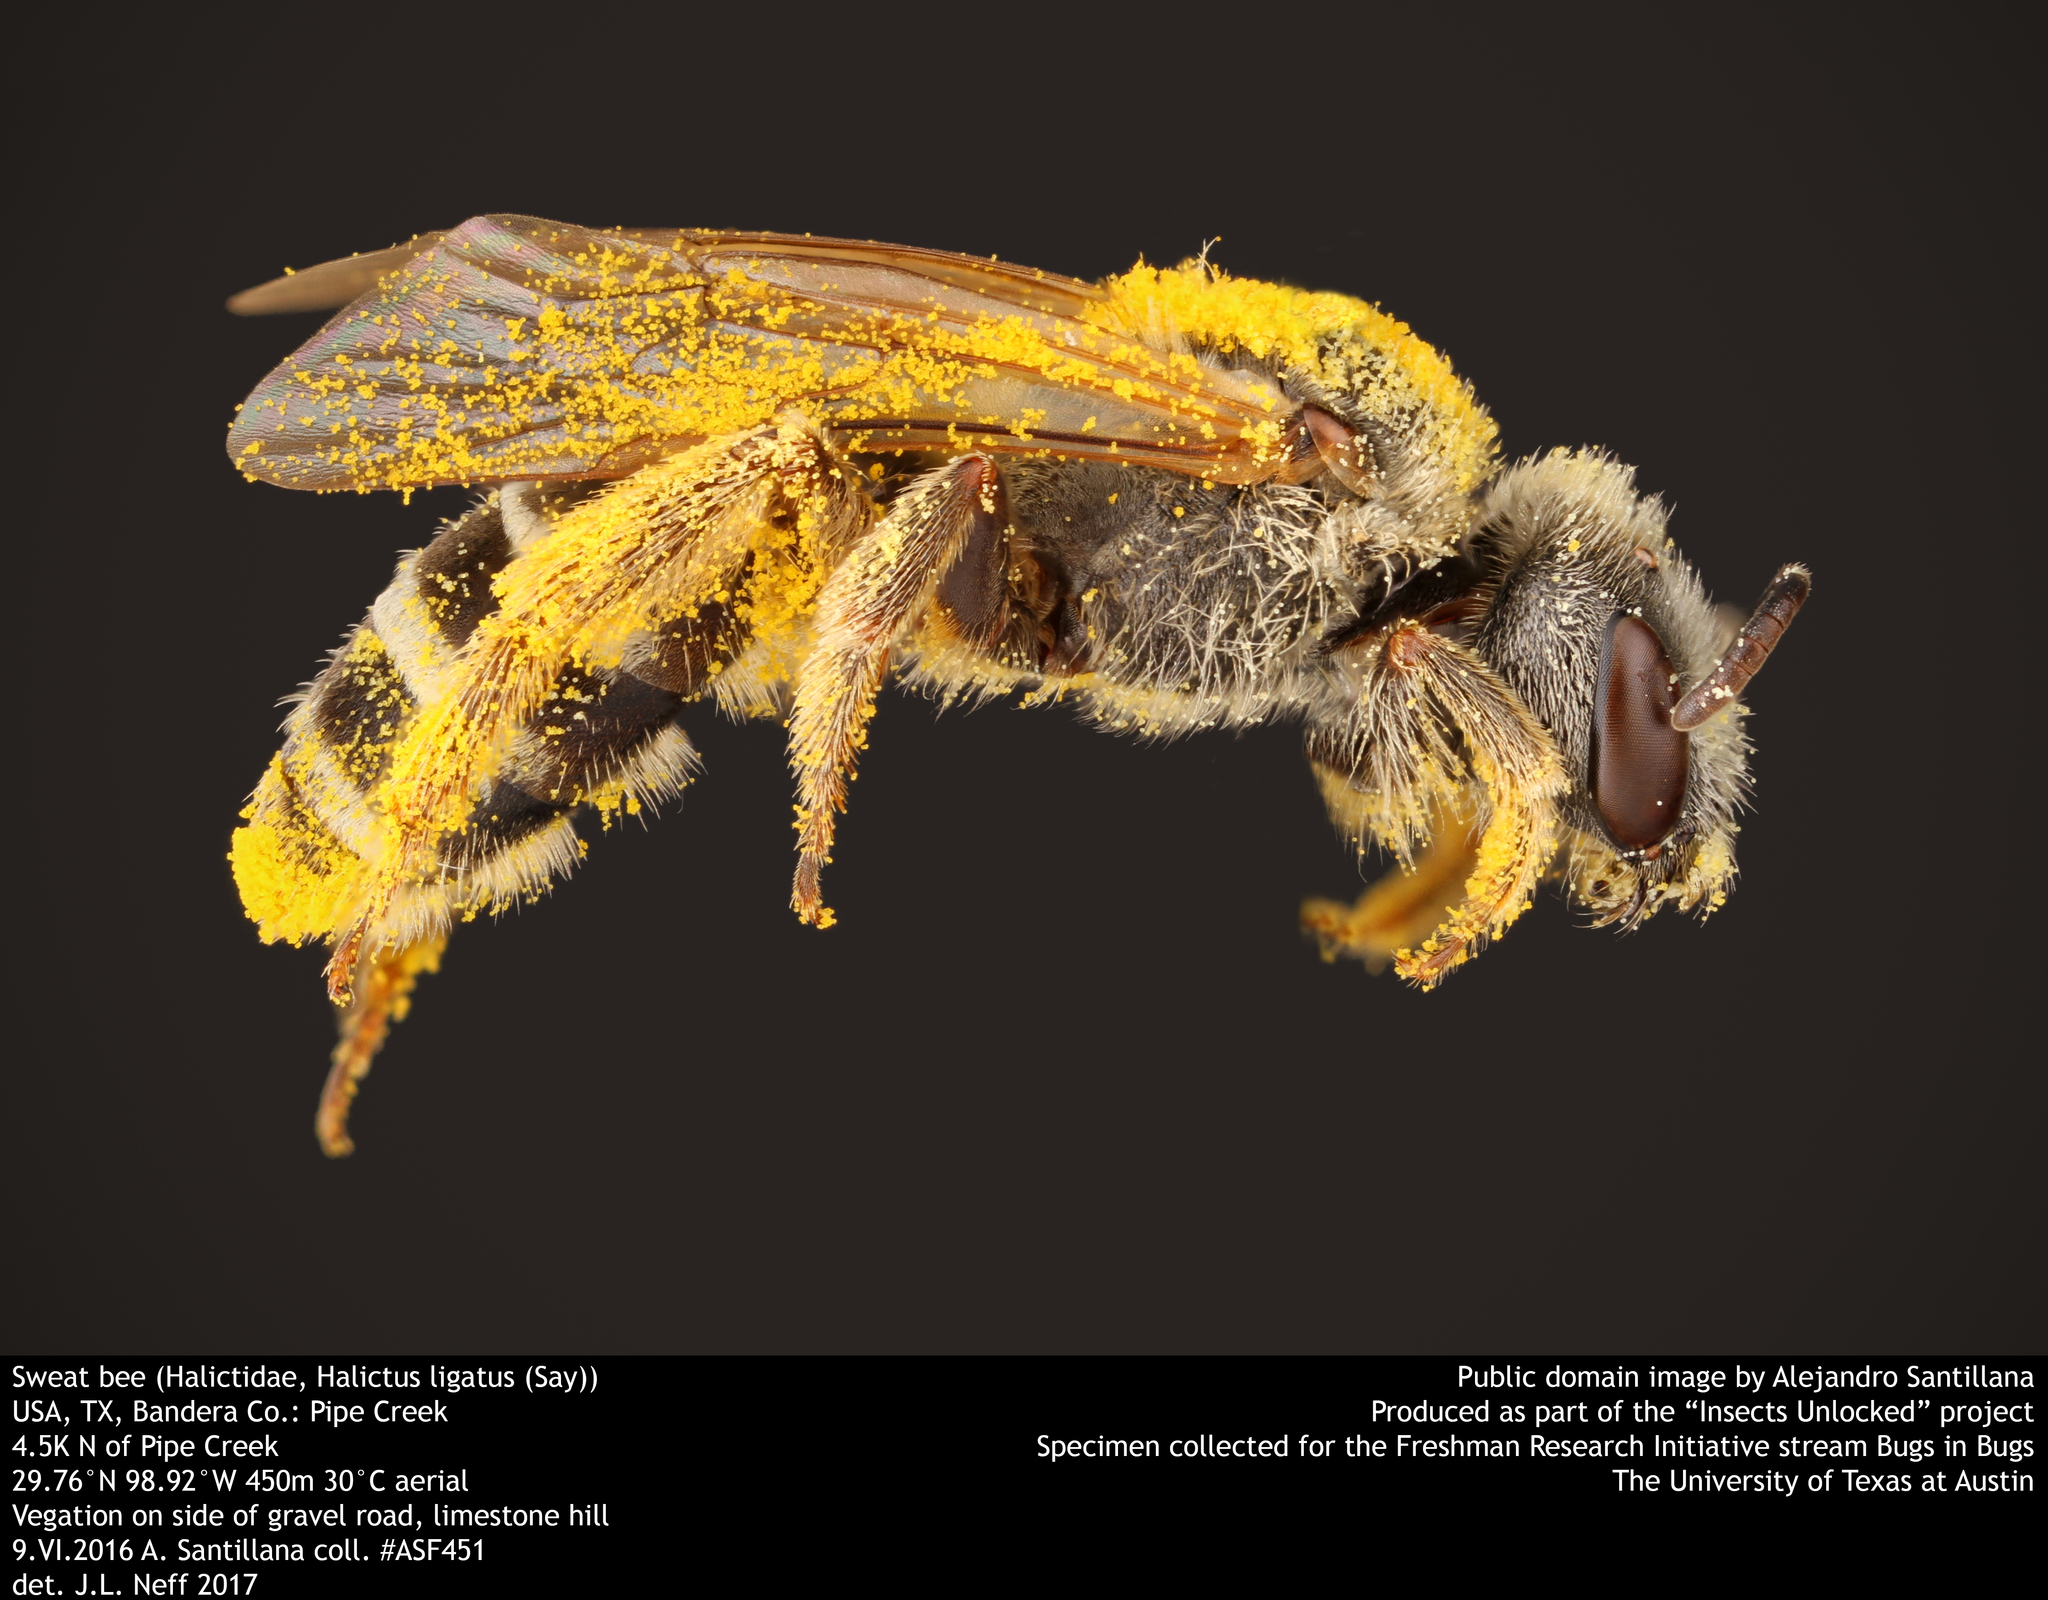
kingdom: Animalia
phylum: Arthropoda
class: Insecta
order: Hymenoptera
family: Halictidae
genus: Halictus
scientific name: Halictus ligatus
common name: Ligated furrow bee
